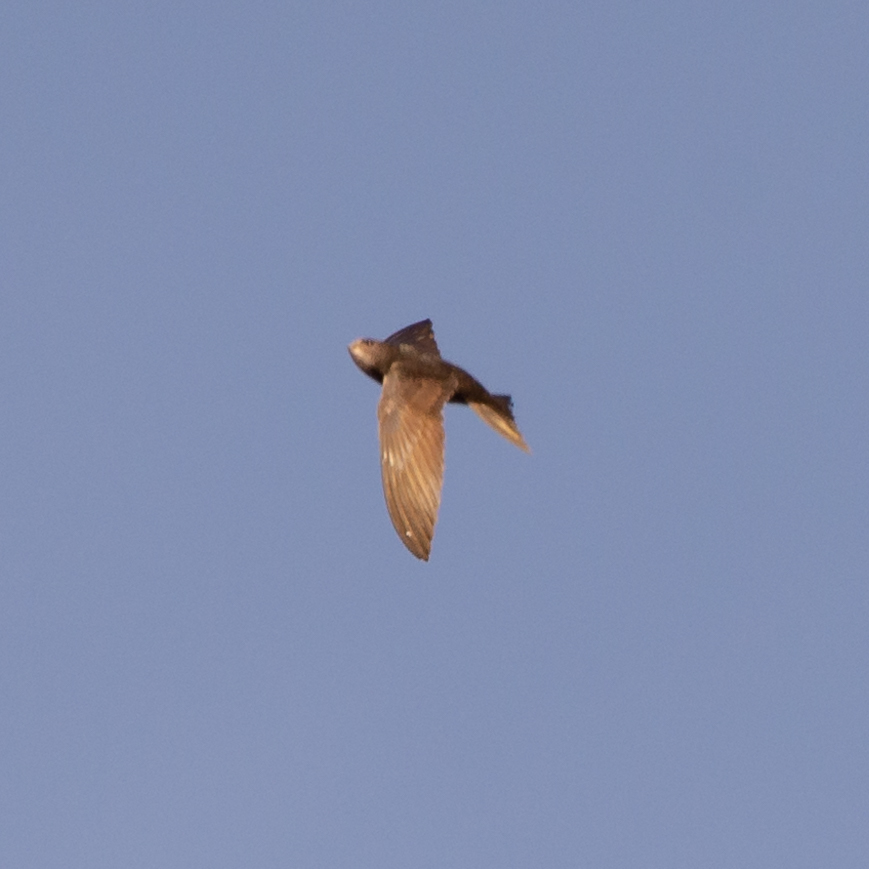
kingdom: Animalia
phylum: Chordata
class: Aves
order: Apodiformes
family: Apodidae
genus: Apus
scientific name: Apus apus
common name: Common swift
